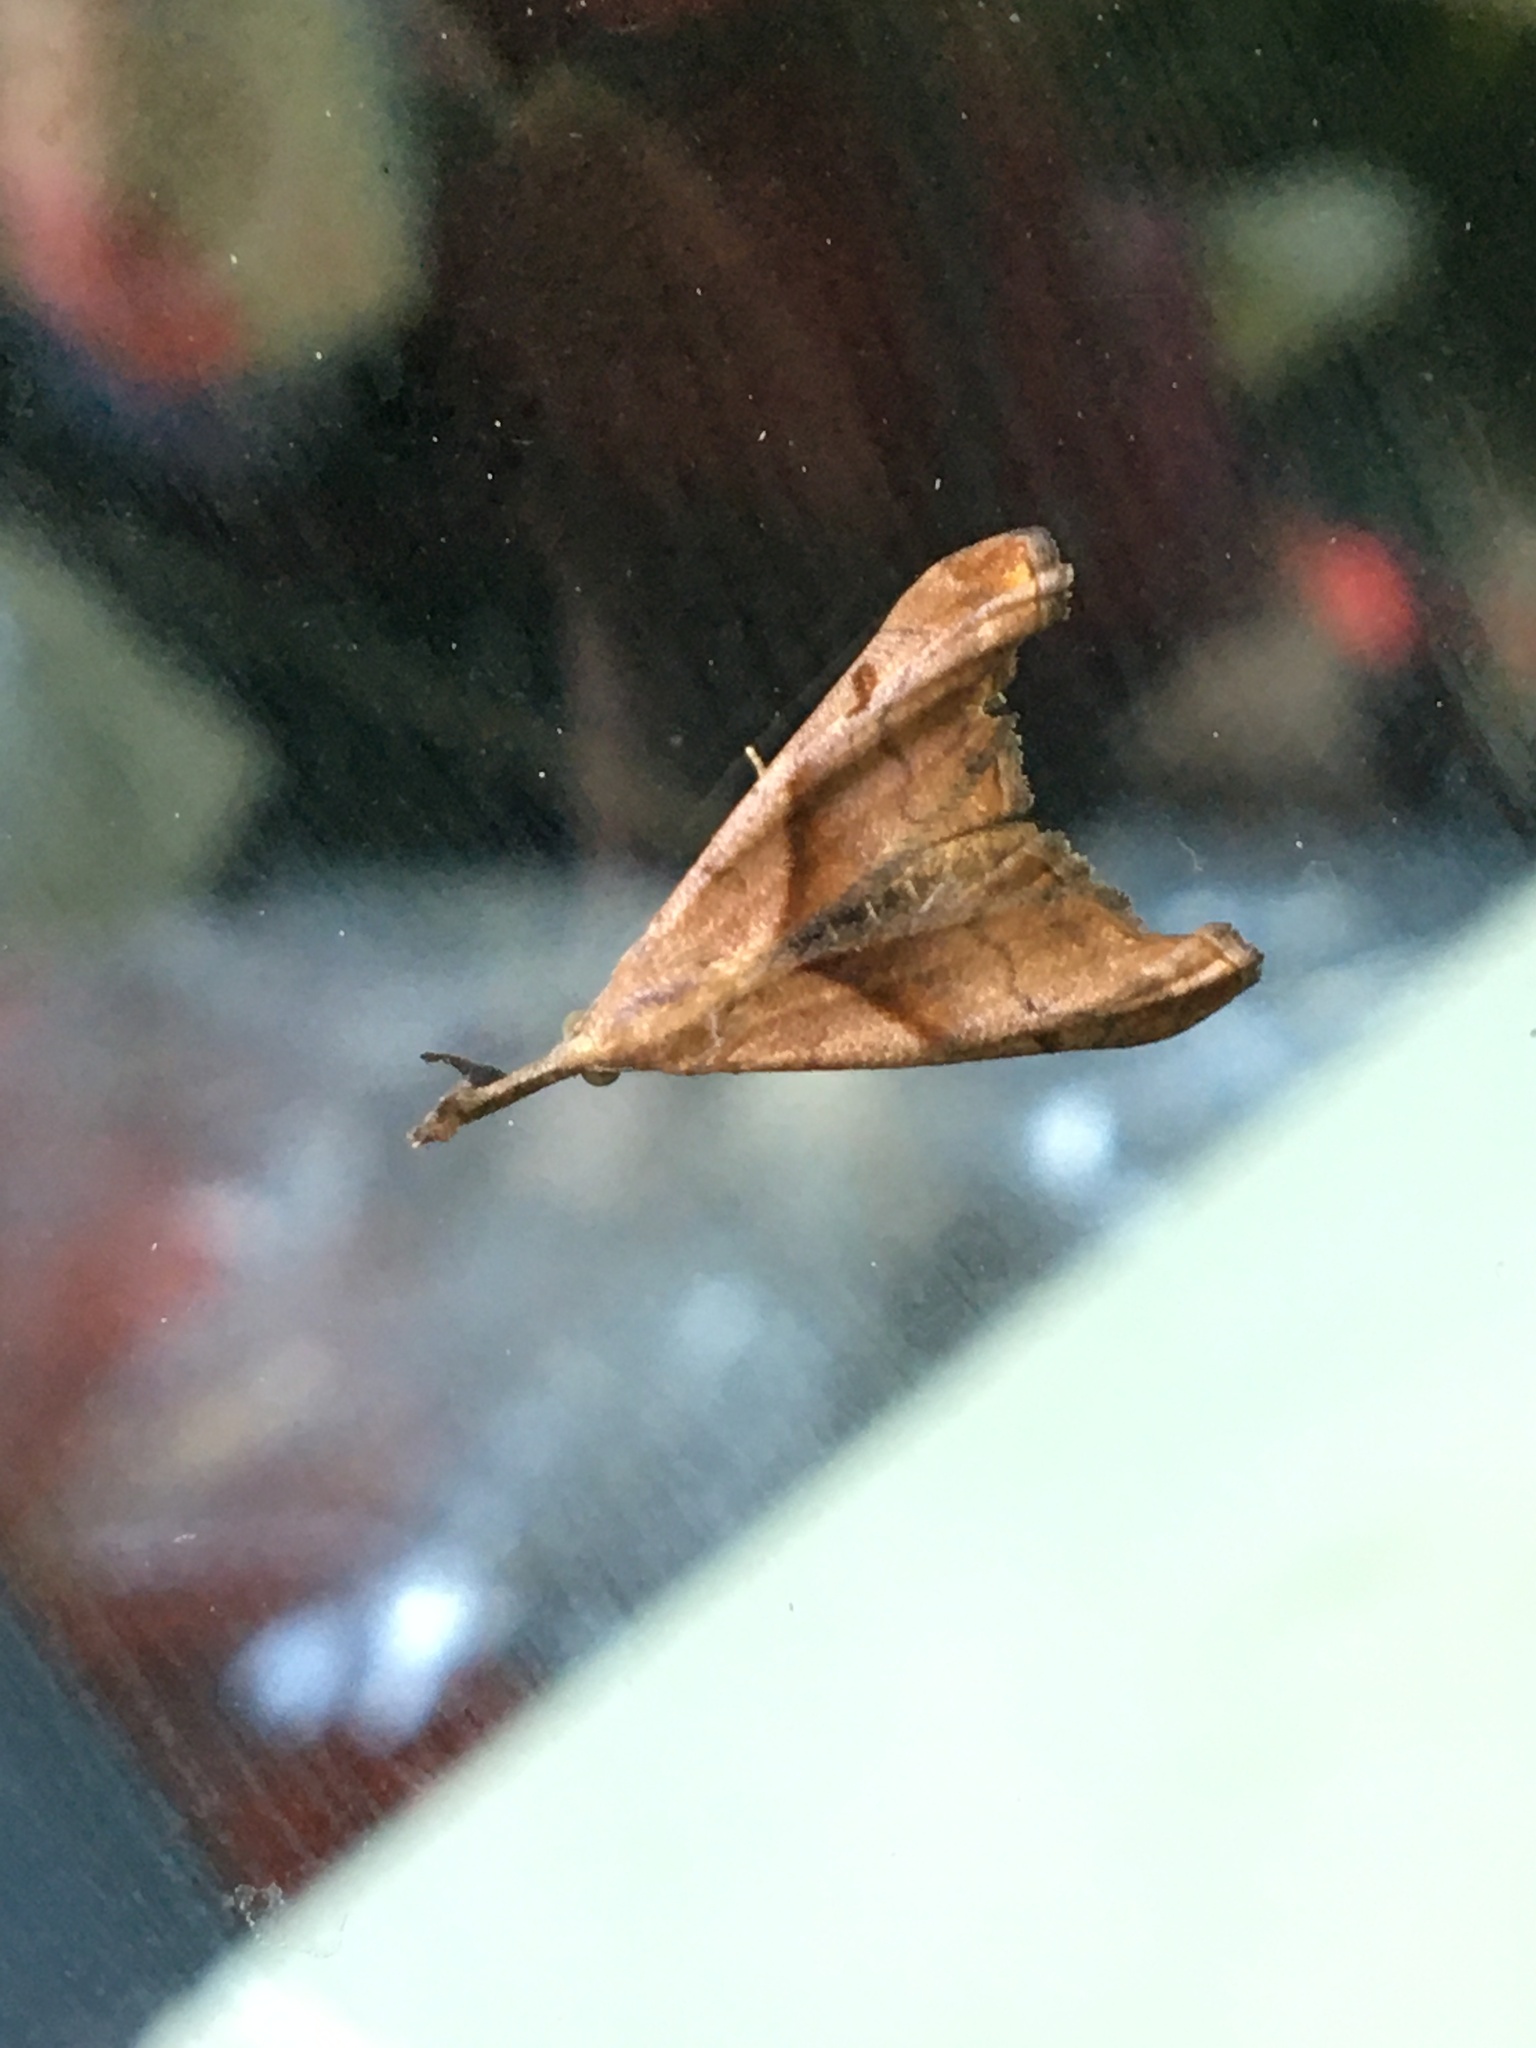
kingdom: Animalia
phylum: Arthropoda
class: Insecta
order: Lepidoptera
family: Erebidae
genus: Palthis
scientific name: Palthis angulalis
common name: Dark-spotted palthis moth
